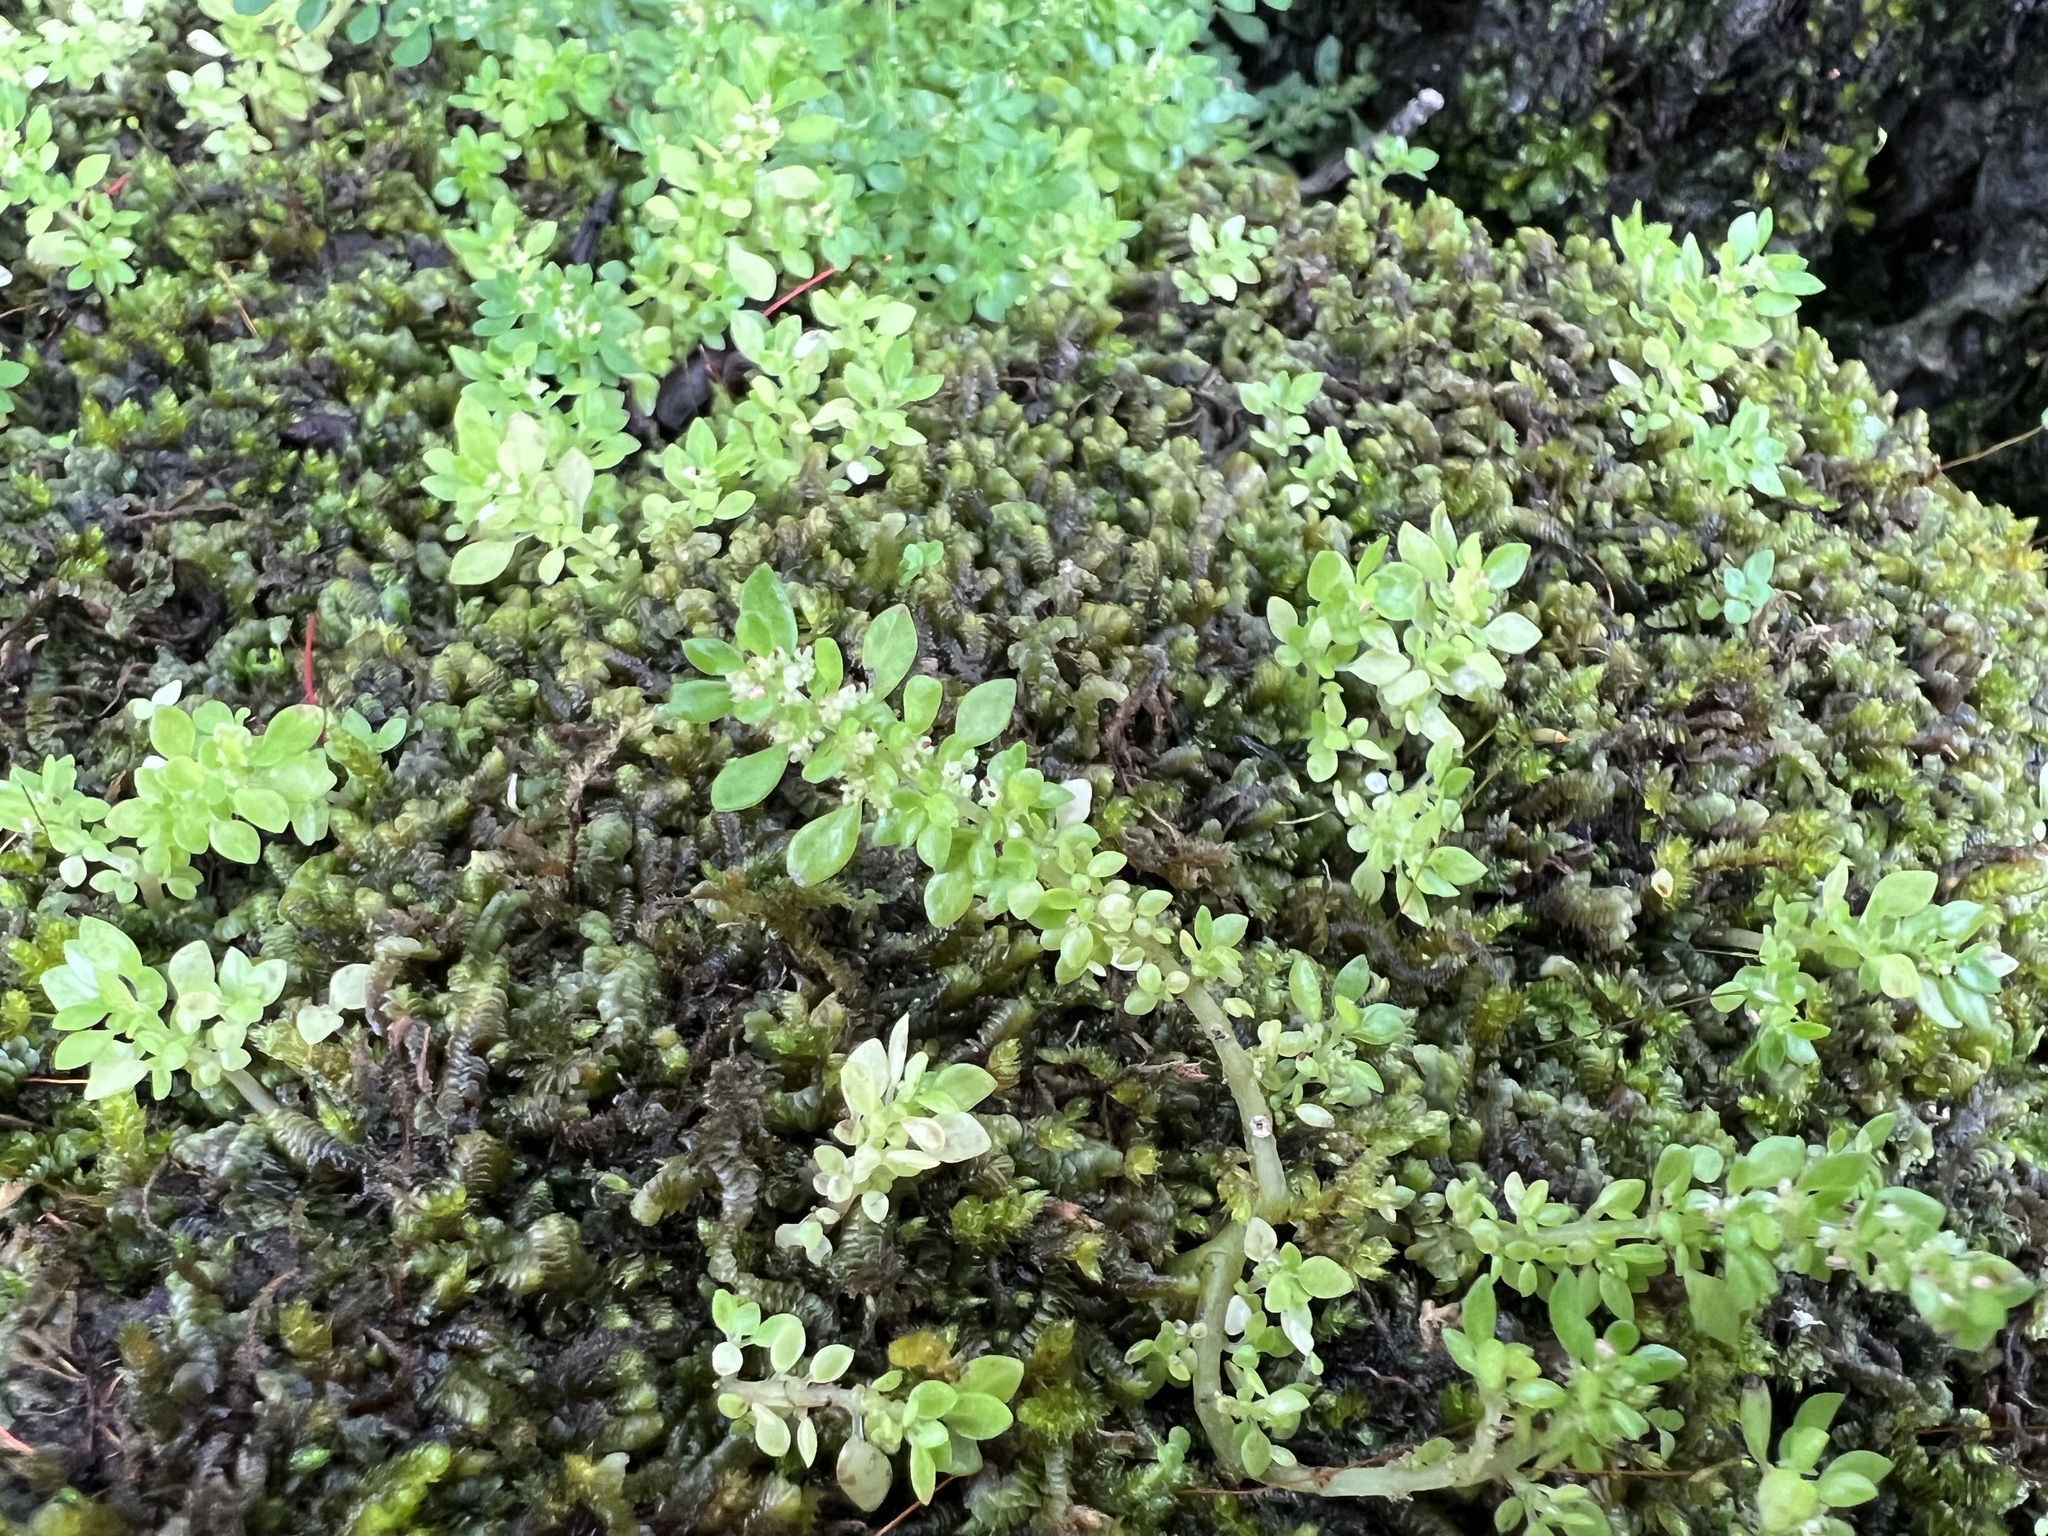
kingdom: Plantae
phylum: Tracheophyta
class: Magnoliopsida
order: Rosales
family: Urticaceae
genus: Pilea
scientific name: Pilea microphylla
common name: Artillery-plant
